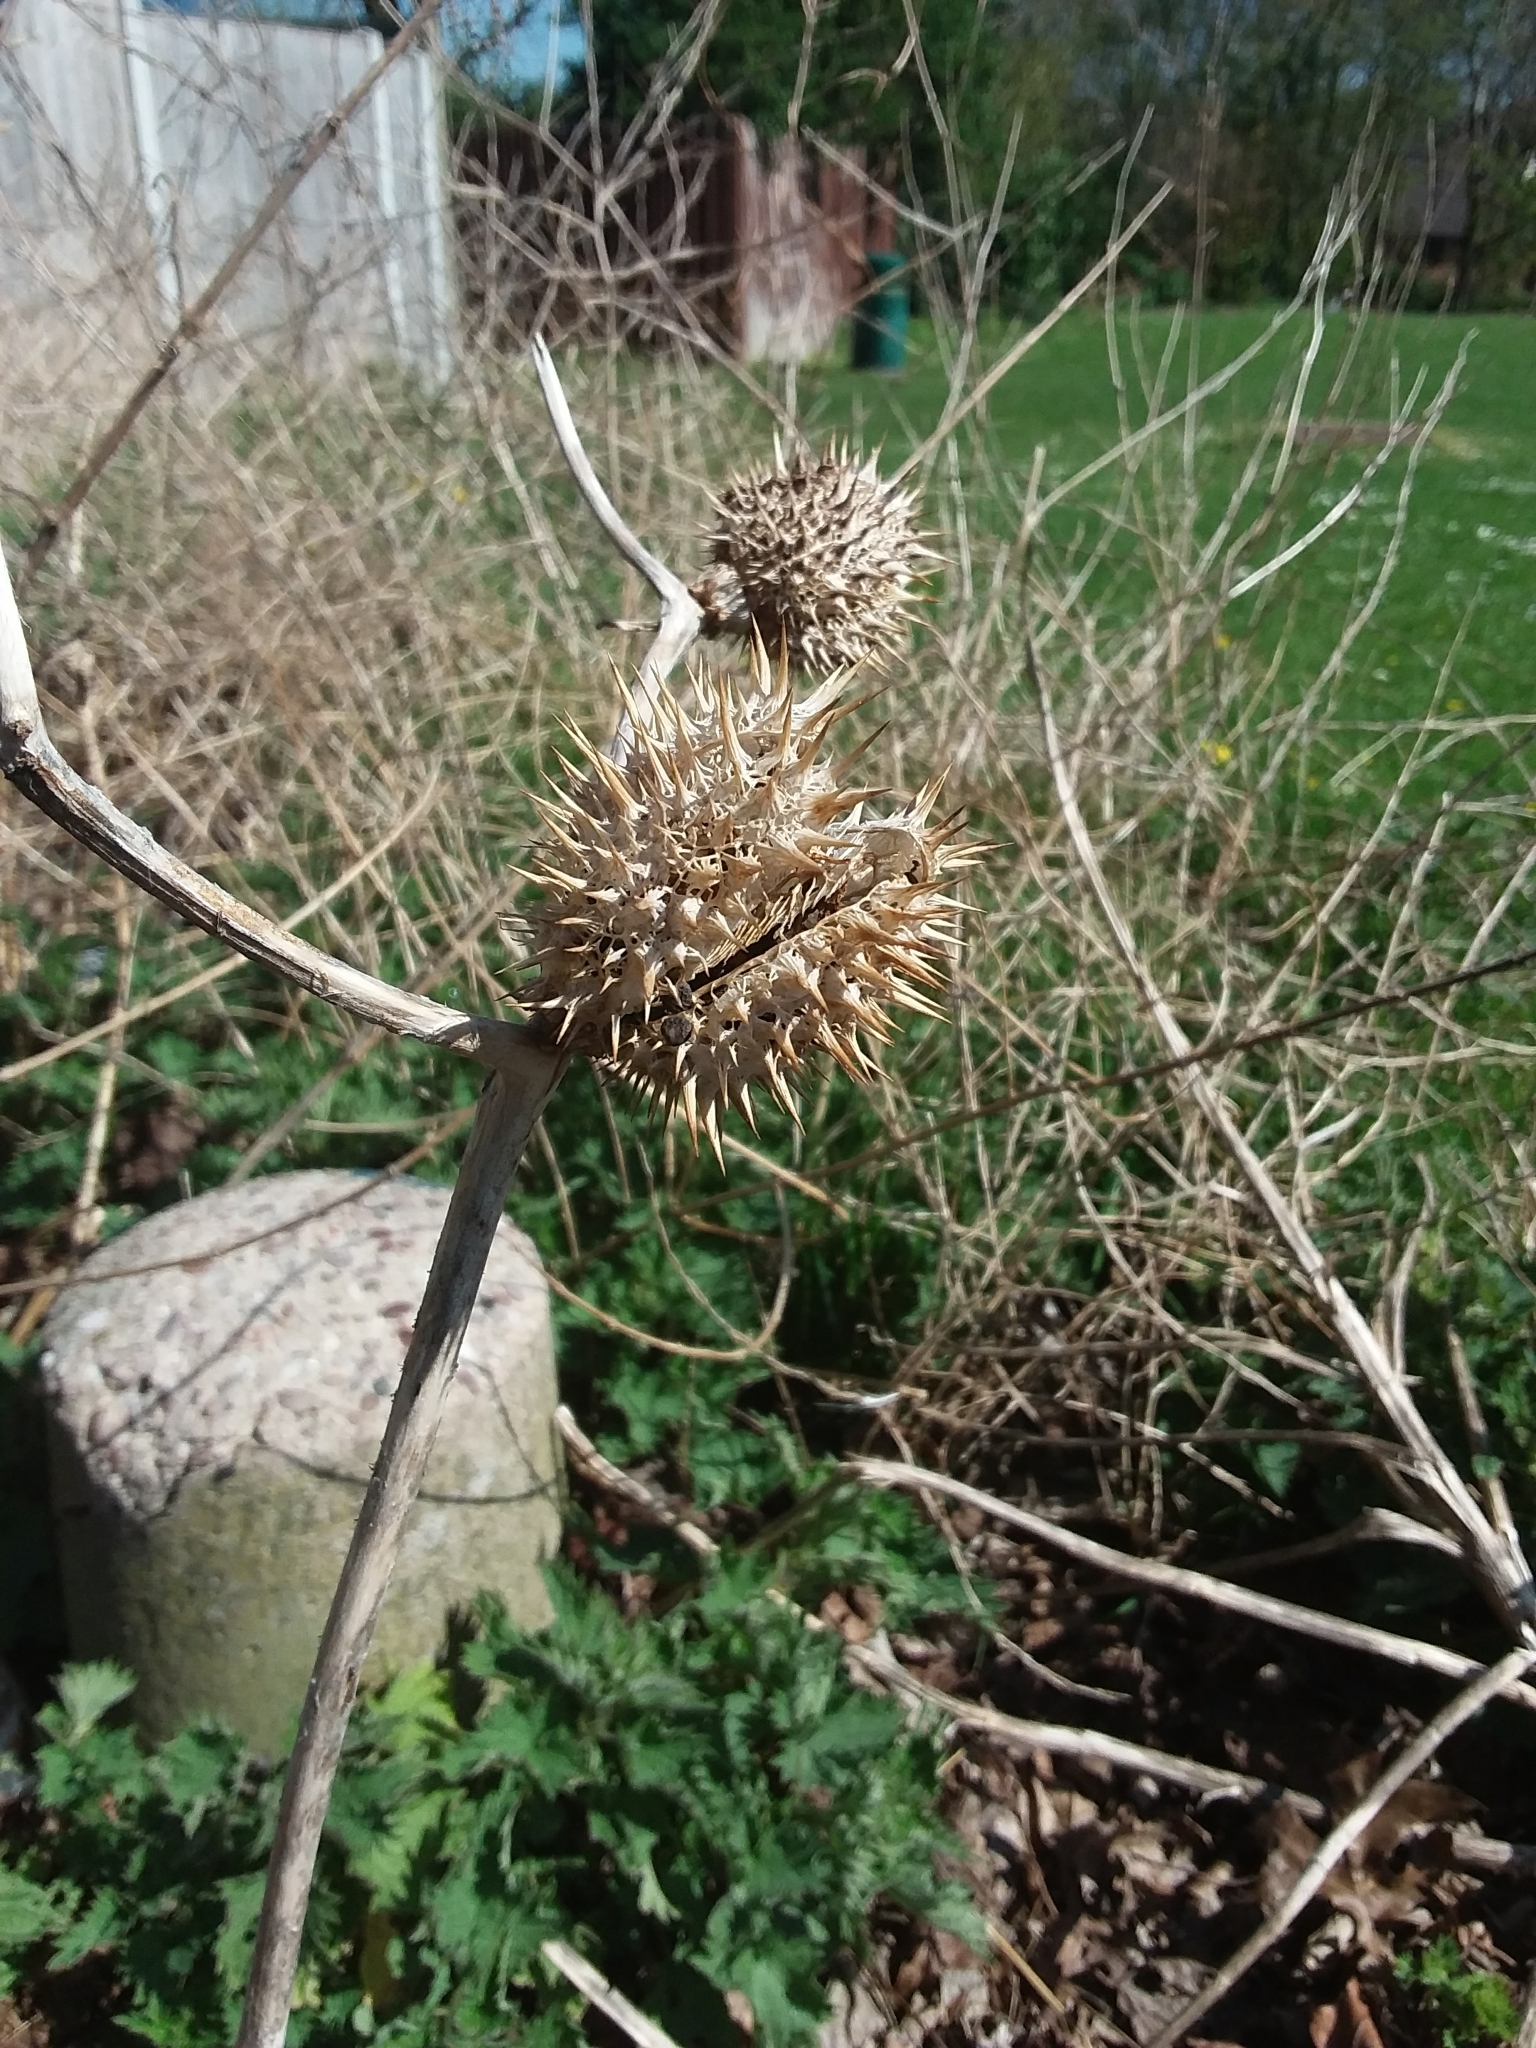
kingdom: Plantae
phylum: Tracheophyta
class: Magnoliopsida
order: Solanales
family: Solanaceae
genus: Datura
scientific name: Datura stramonium
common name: Thorn-apple
